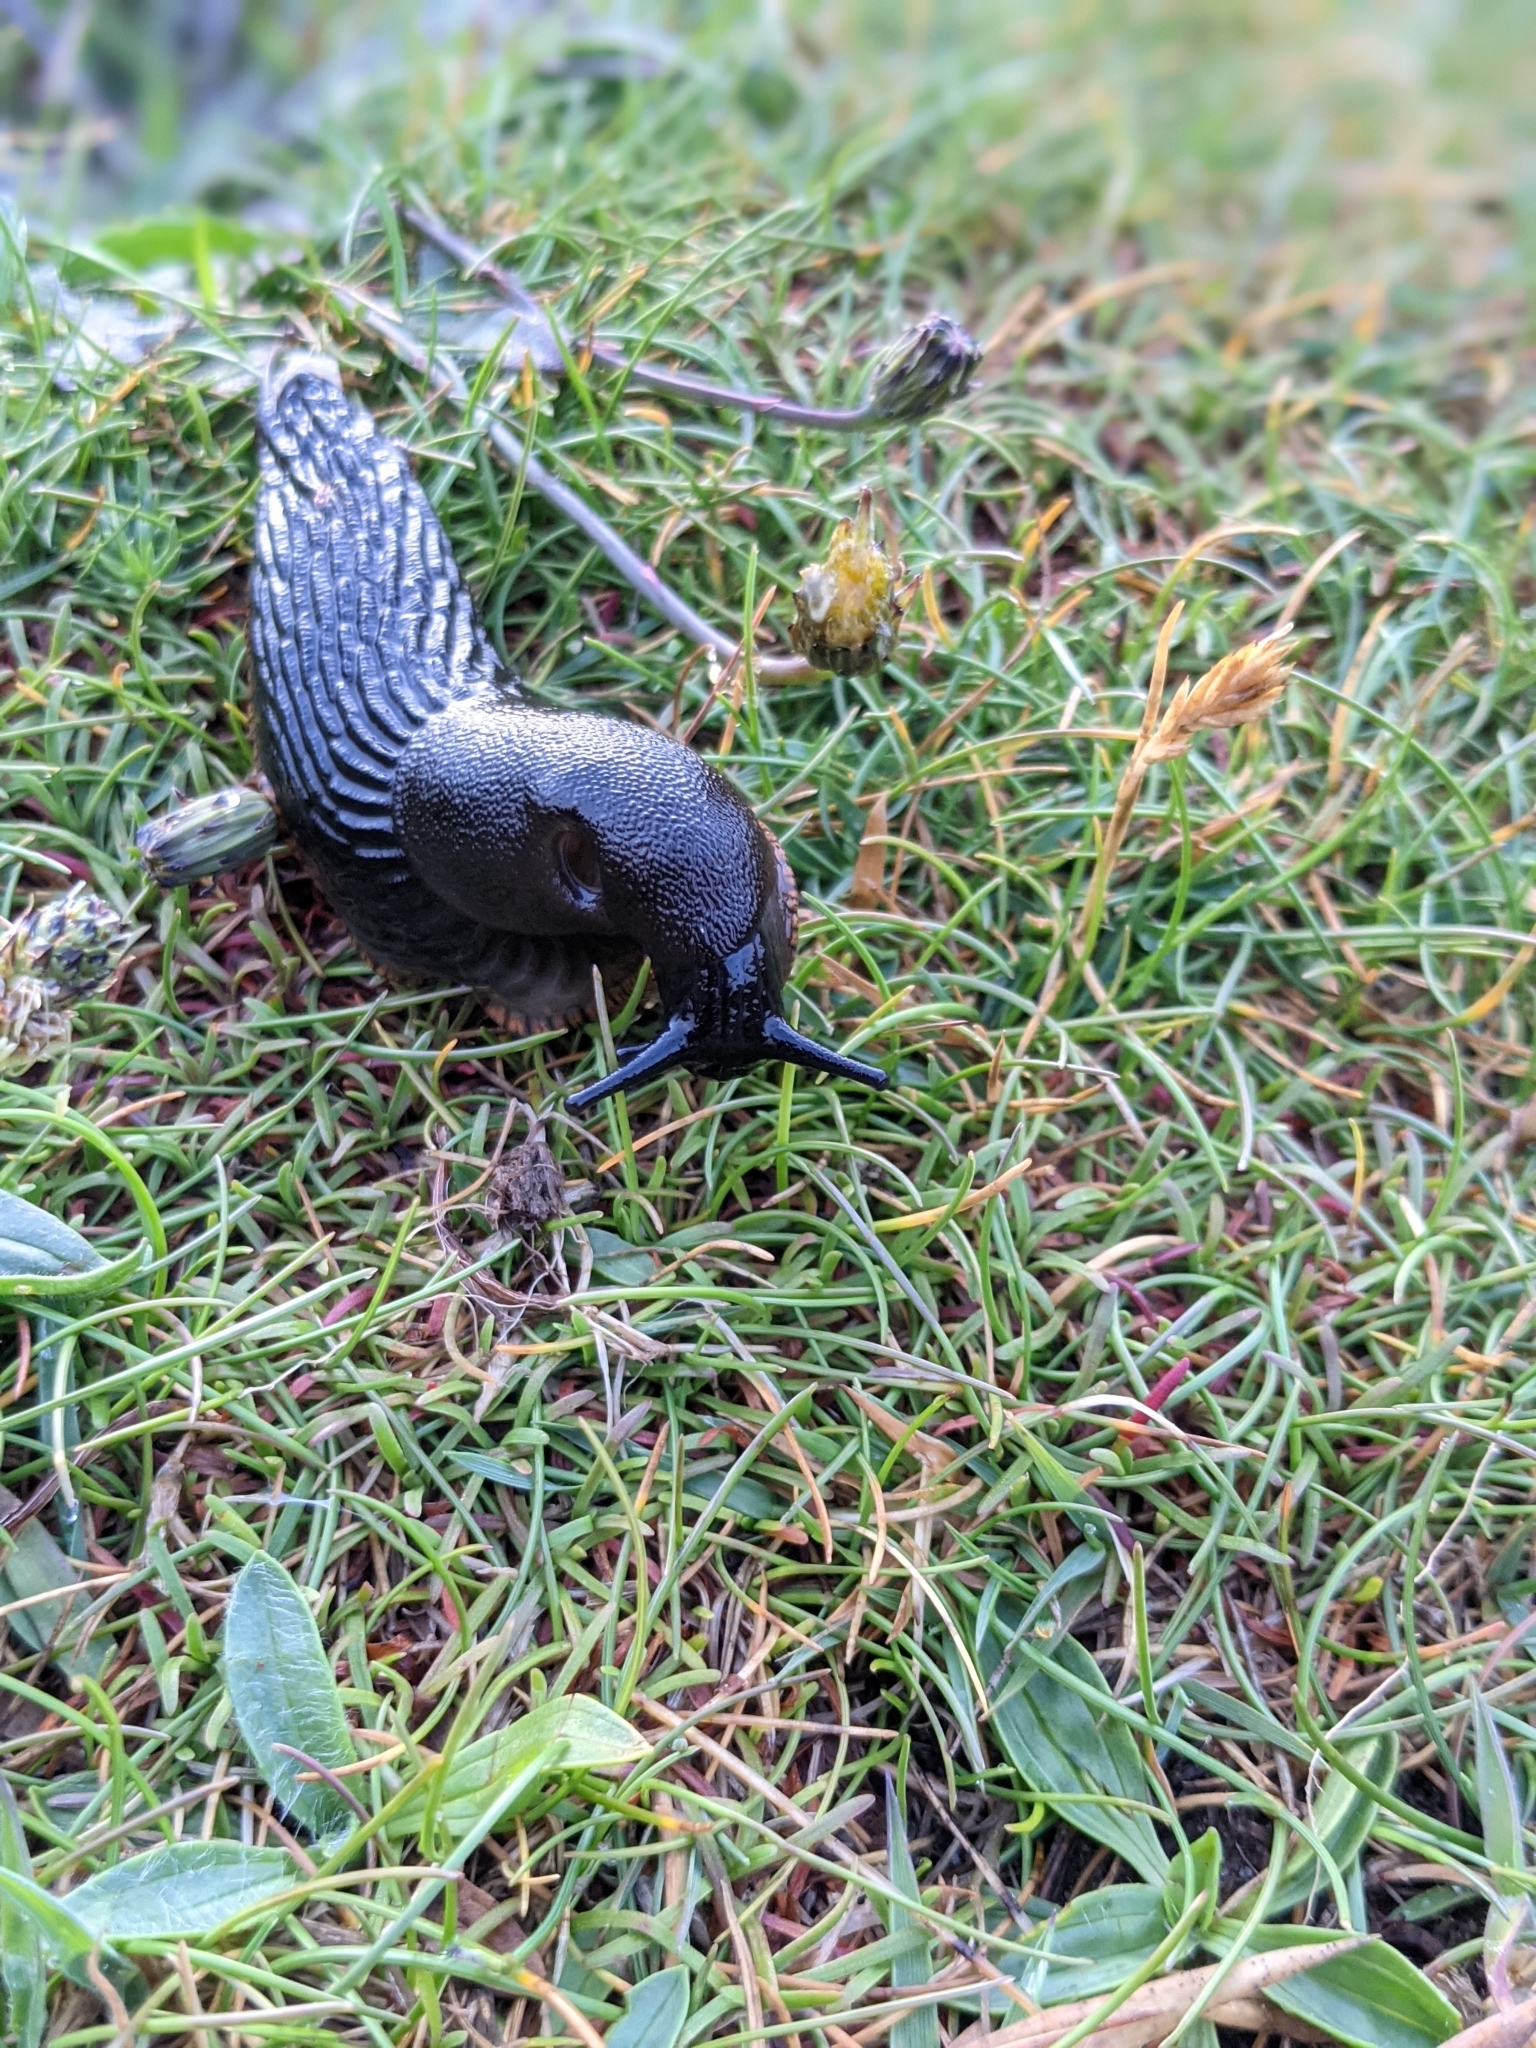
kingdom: Animalia
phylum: Mollusca
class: Gastropoda
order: Stylommatophora
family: Arionidae
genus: Arion
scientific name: Arion ater
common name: Black arion
